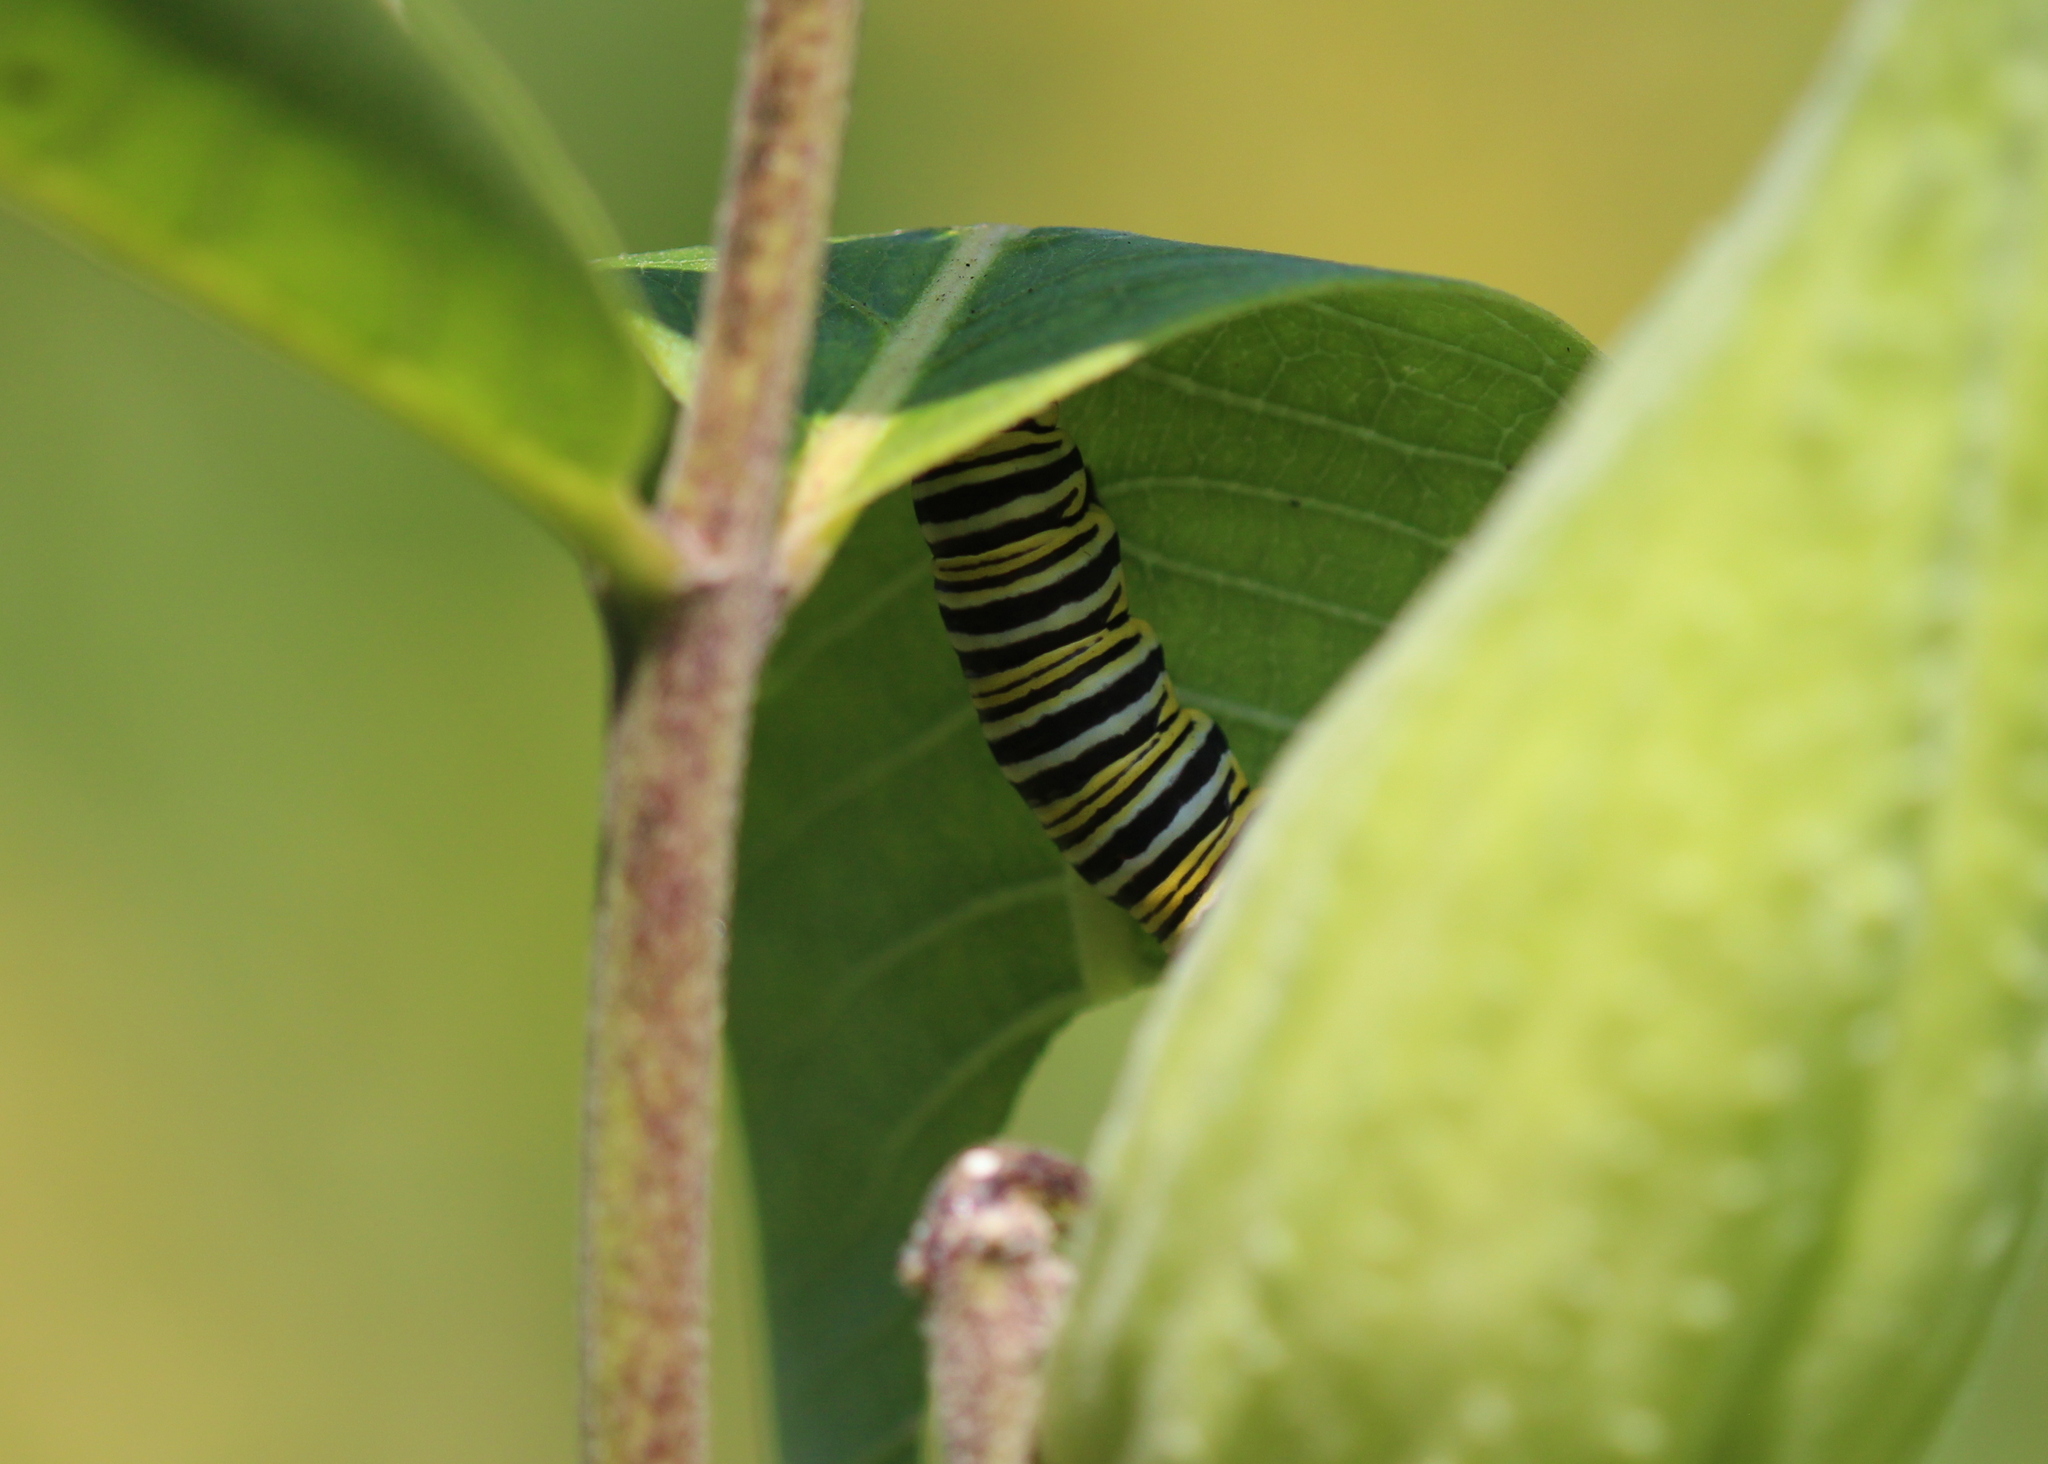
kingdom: Animalia
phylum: Arthropoda
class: Insecta
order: Lepidoptera
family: Nymphalidae
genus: Danaus
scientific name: Danaus plexippus
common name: Monarch
